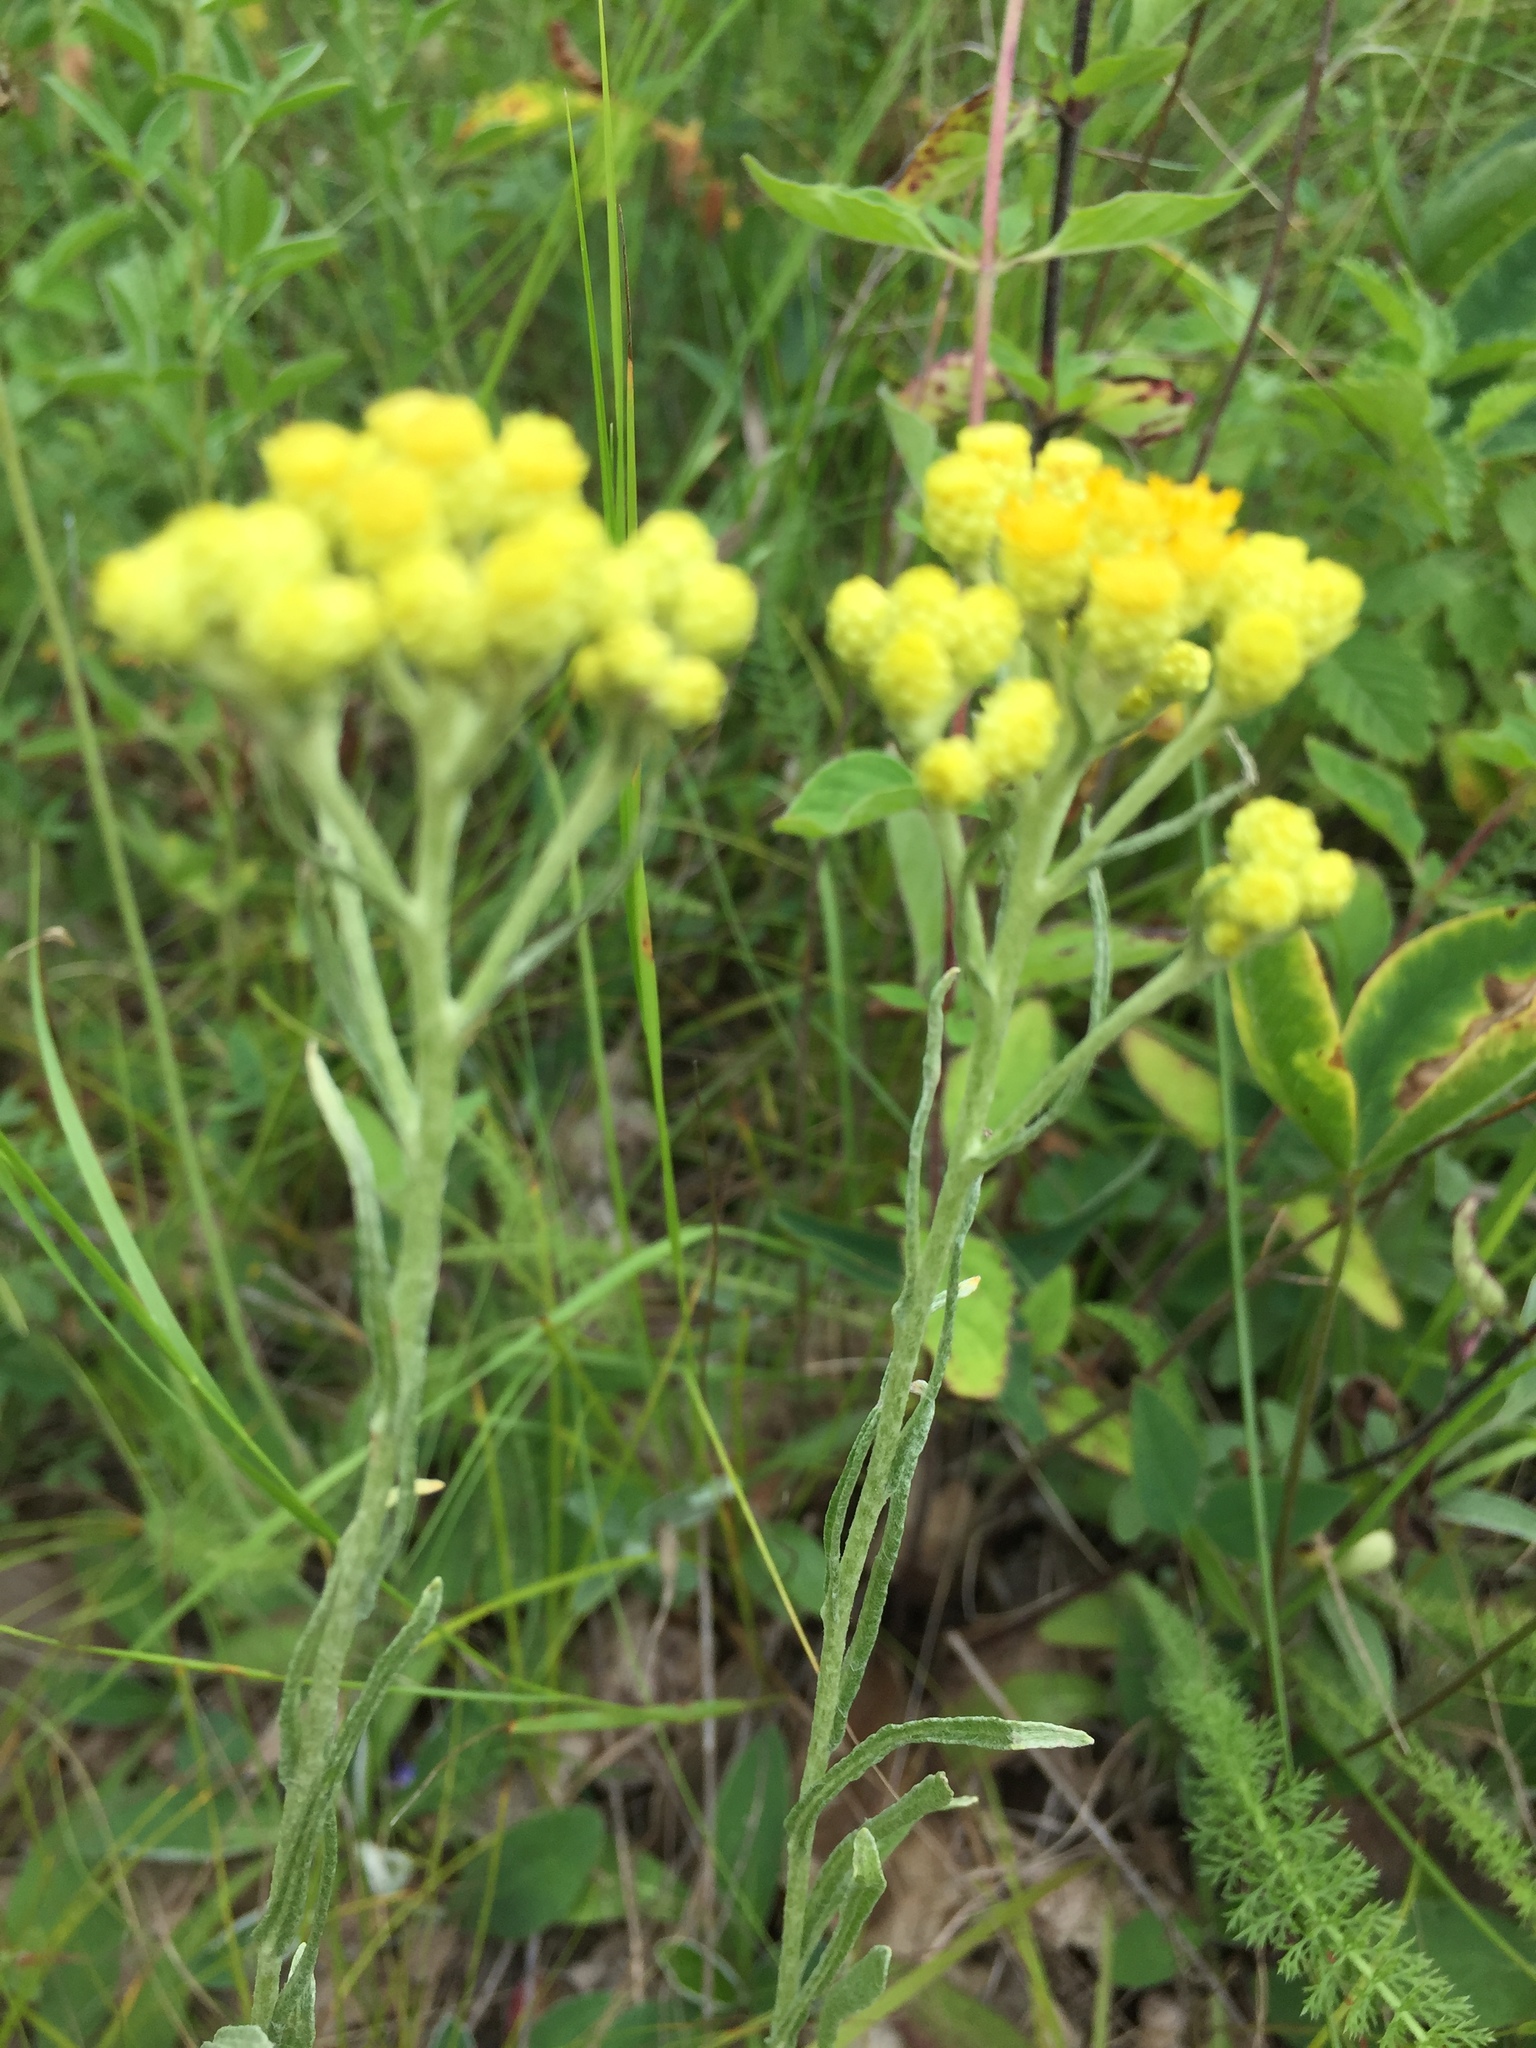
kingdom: Plantae
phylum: Tracheophyta
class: Magnoliopsida
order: Asterales
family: Asteraceae
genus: Helichrysum
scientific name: Helichrysum arenarium
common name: Strawflower
